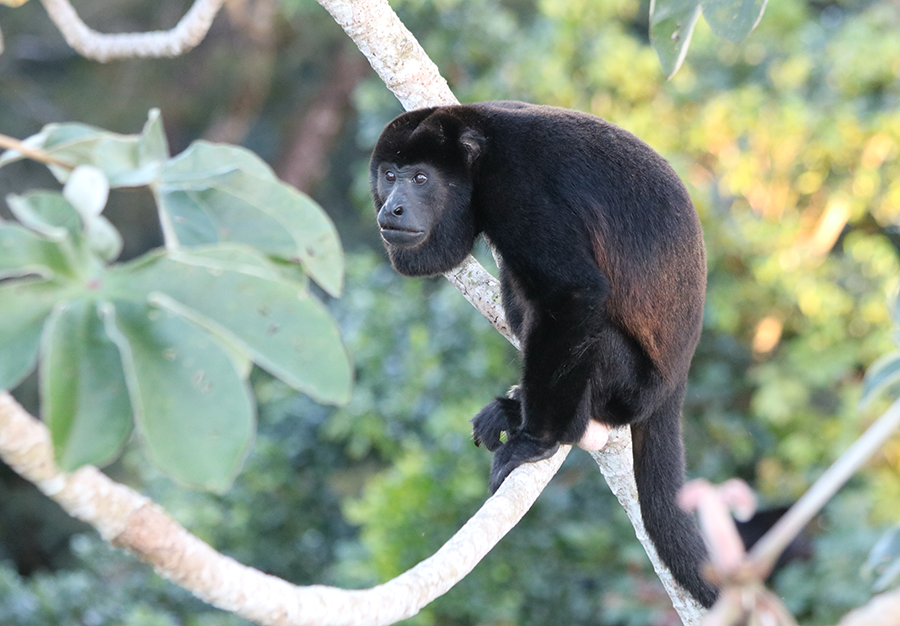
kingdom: Animalia
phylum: Chordata
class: Mammalia
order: Primates
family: Atelidae
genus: Alouatta
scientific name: Alouatta palliata
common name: Mantled howler
